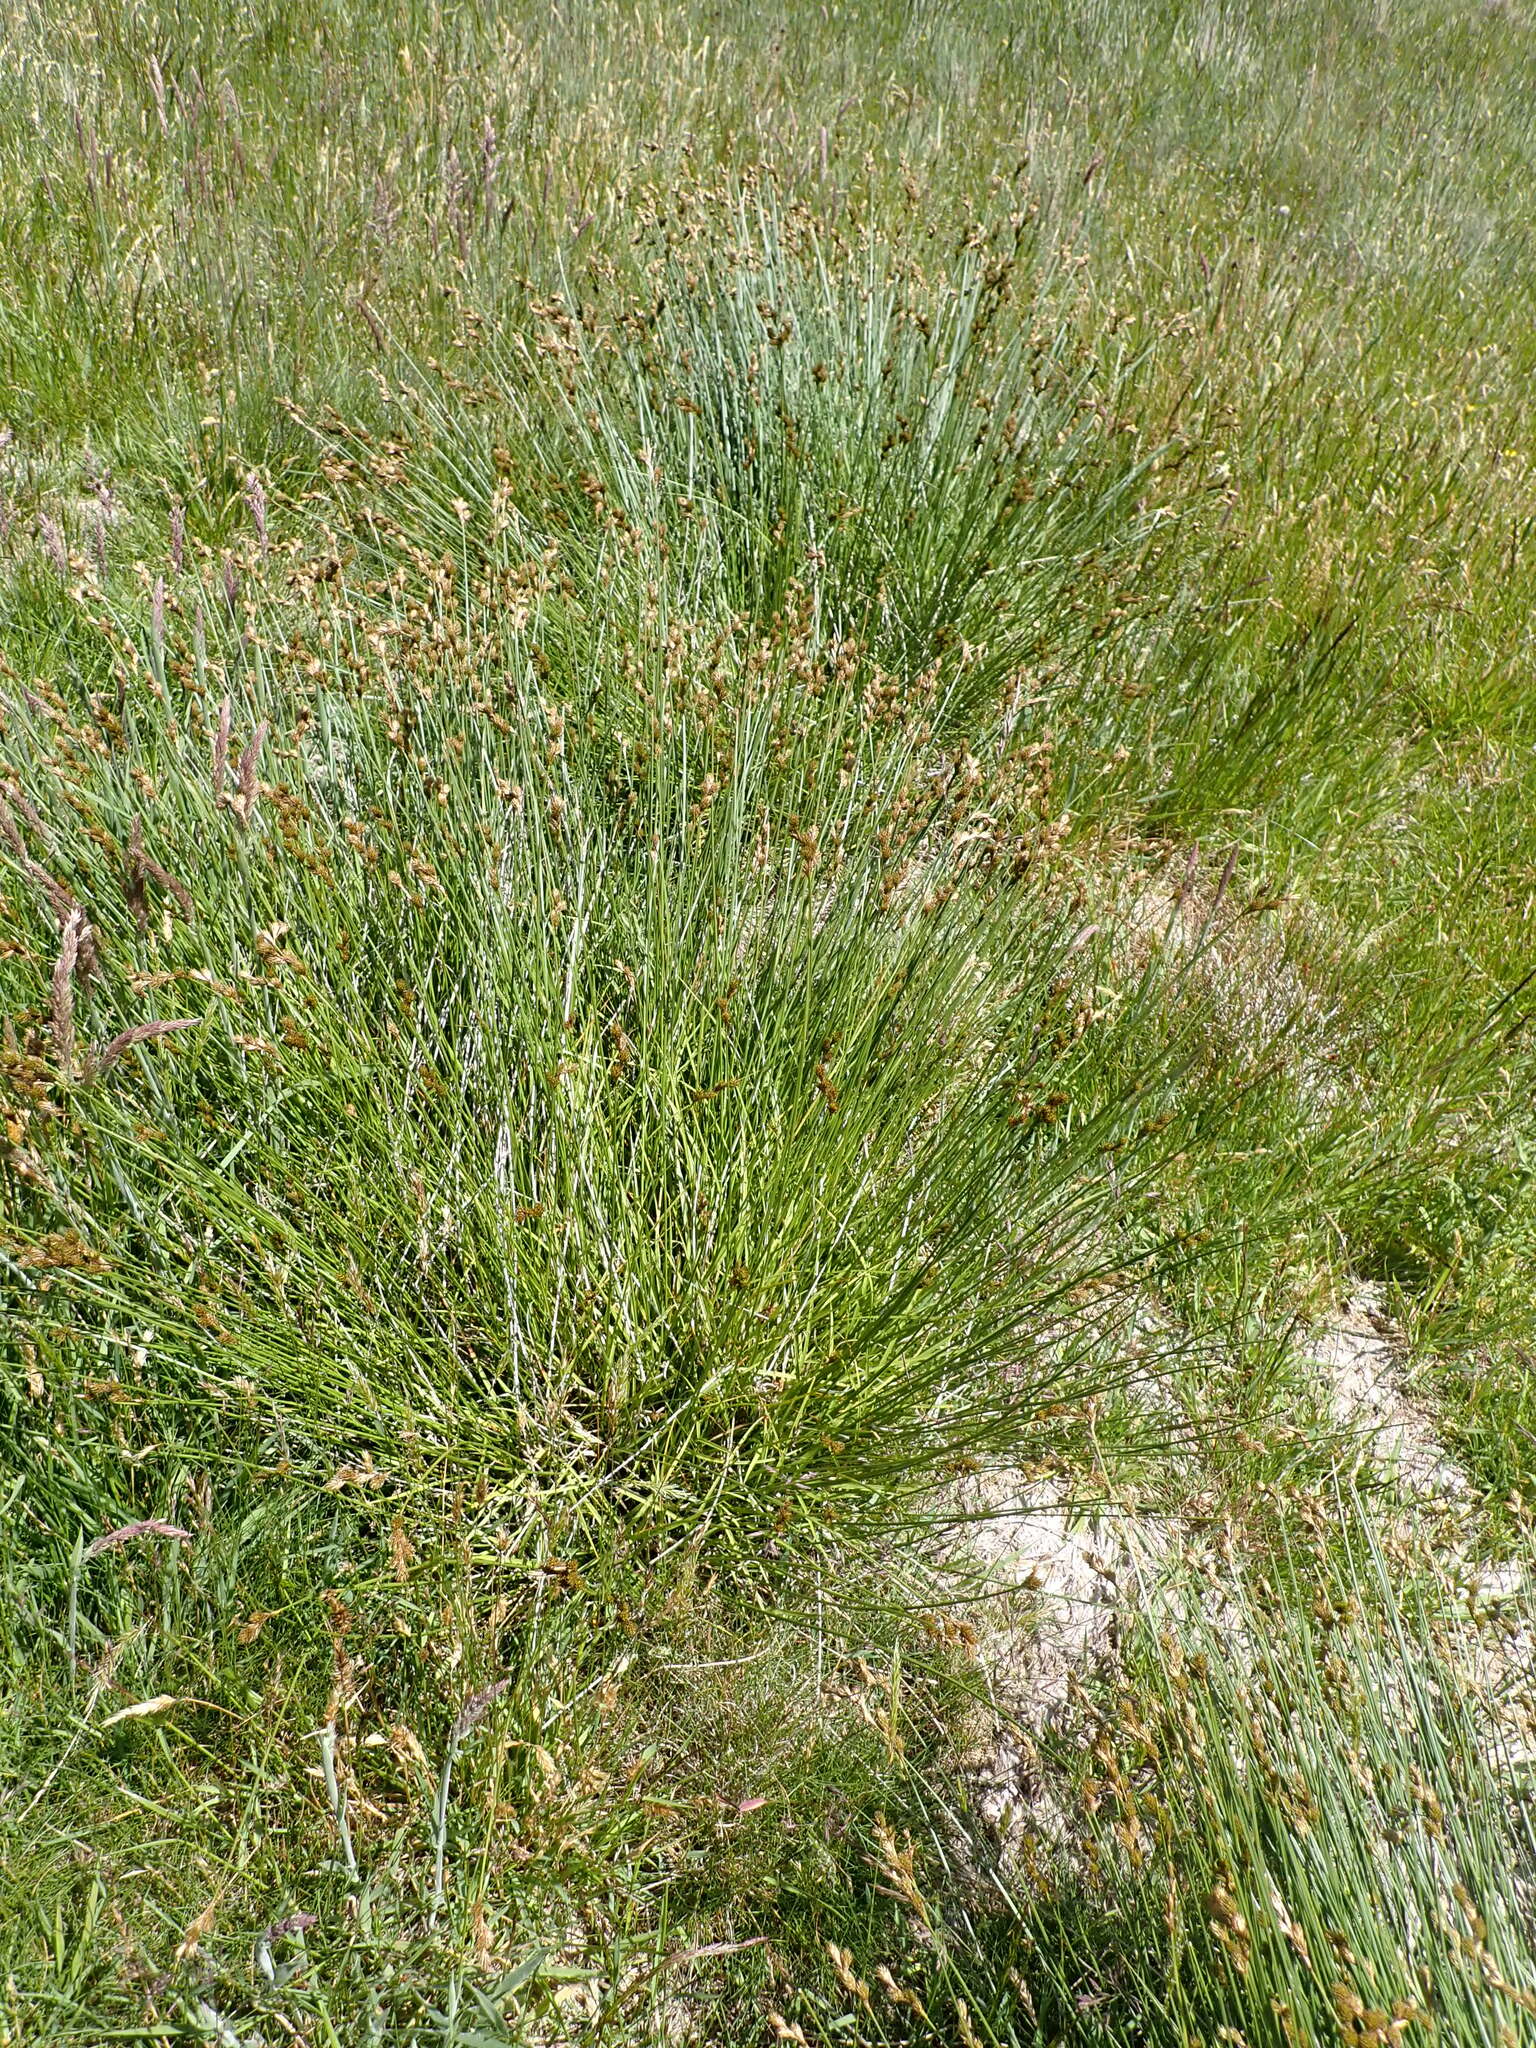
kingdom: Plantae
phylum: Tracheophyta
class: Liliopsida
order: Poales
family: Cyperaceae
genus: Carex
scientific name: Carex leporina
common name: Oval sedge
